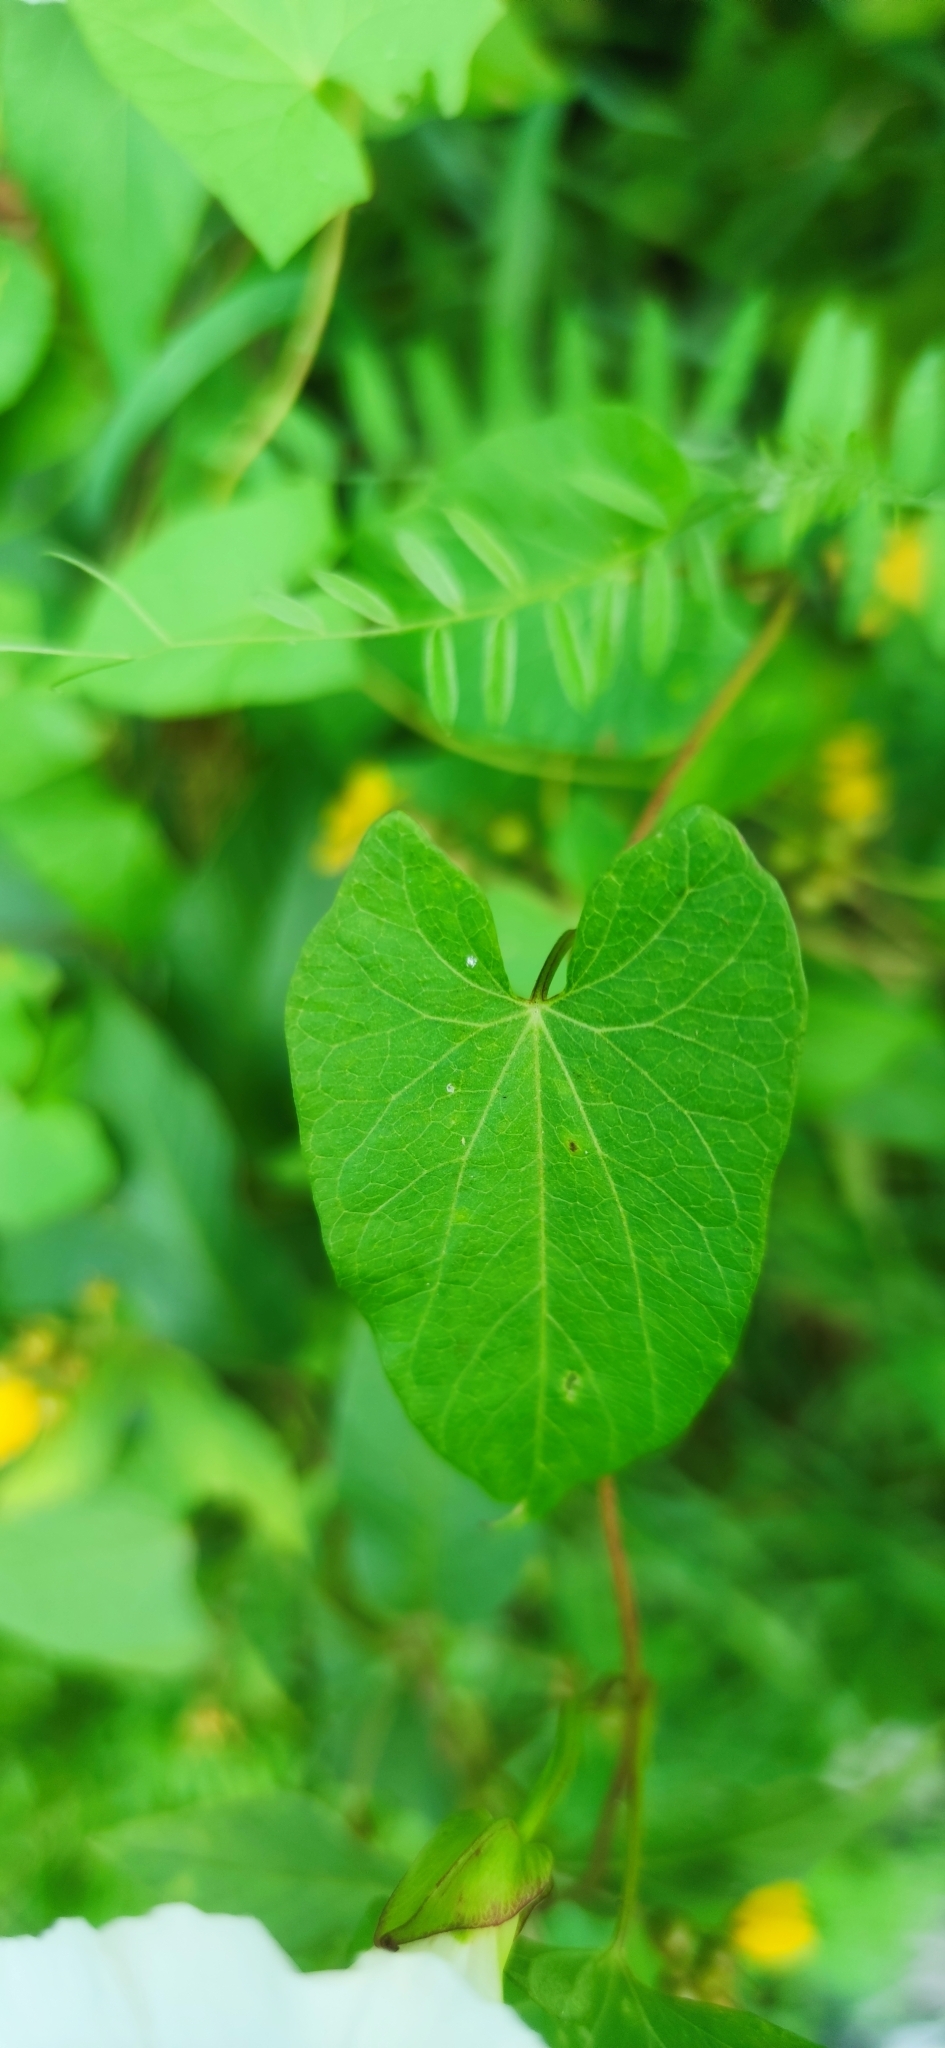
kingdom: Plantae
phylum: Tracheophyta
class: Magnoliopsida
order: Solanales
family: Convolvulaceae
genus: Calystegia
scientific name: Calystegia sepium
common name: Hedge bindweed
